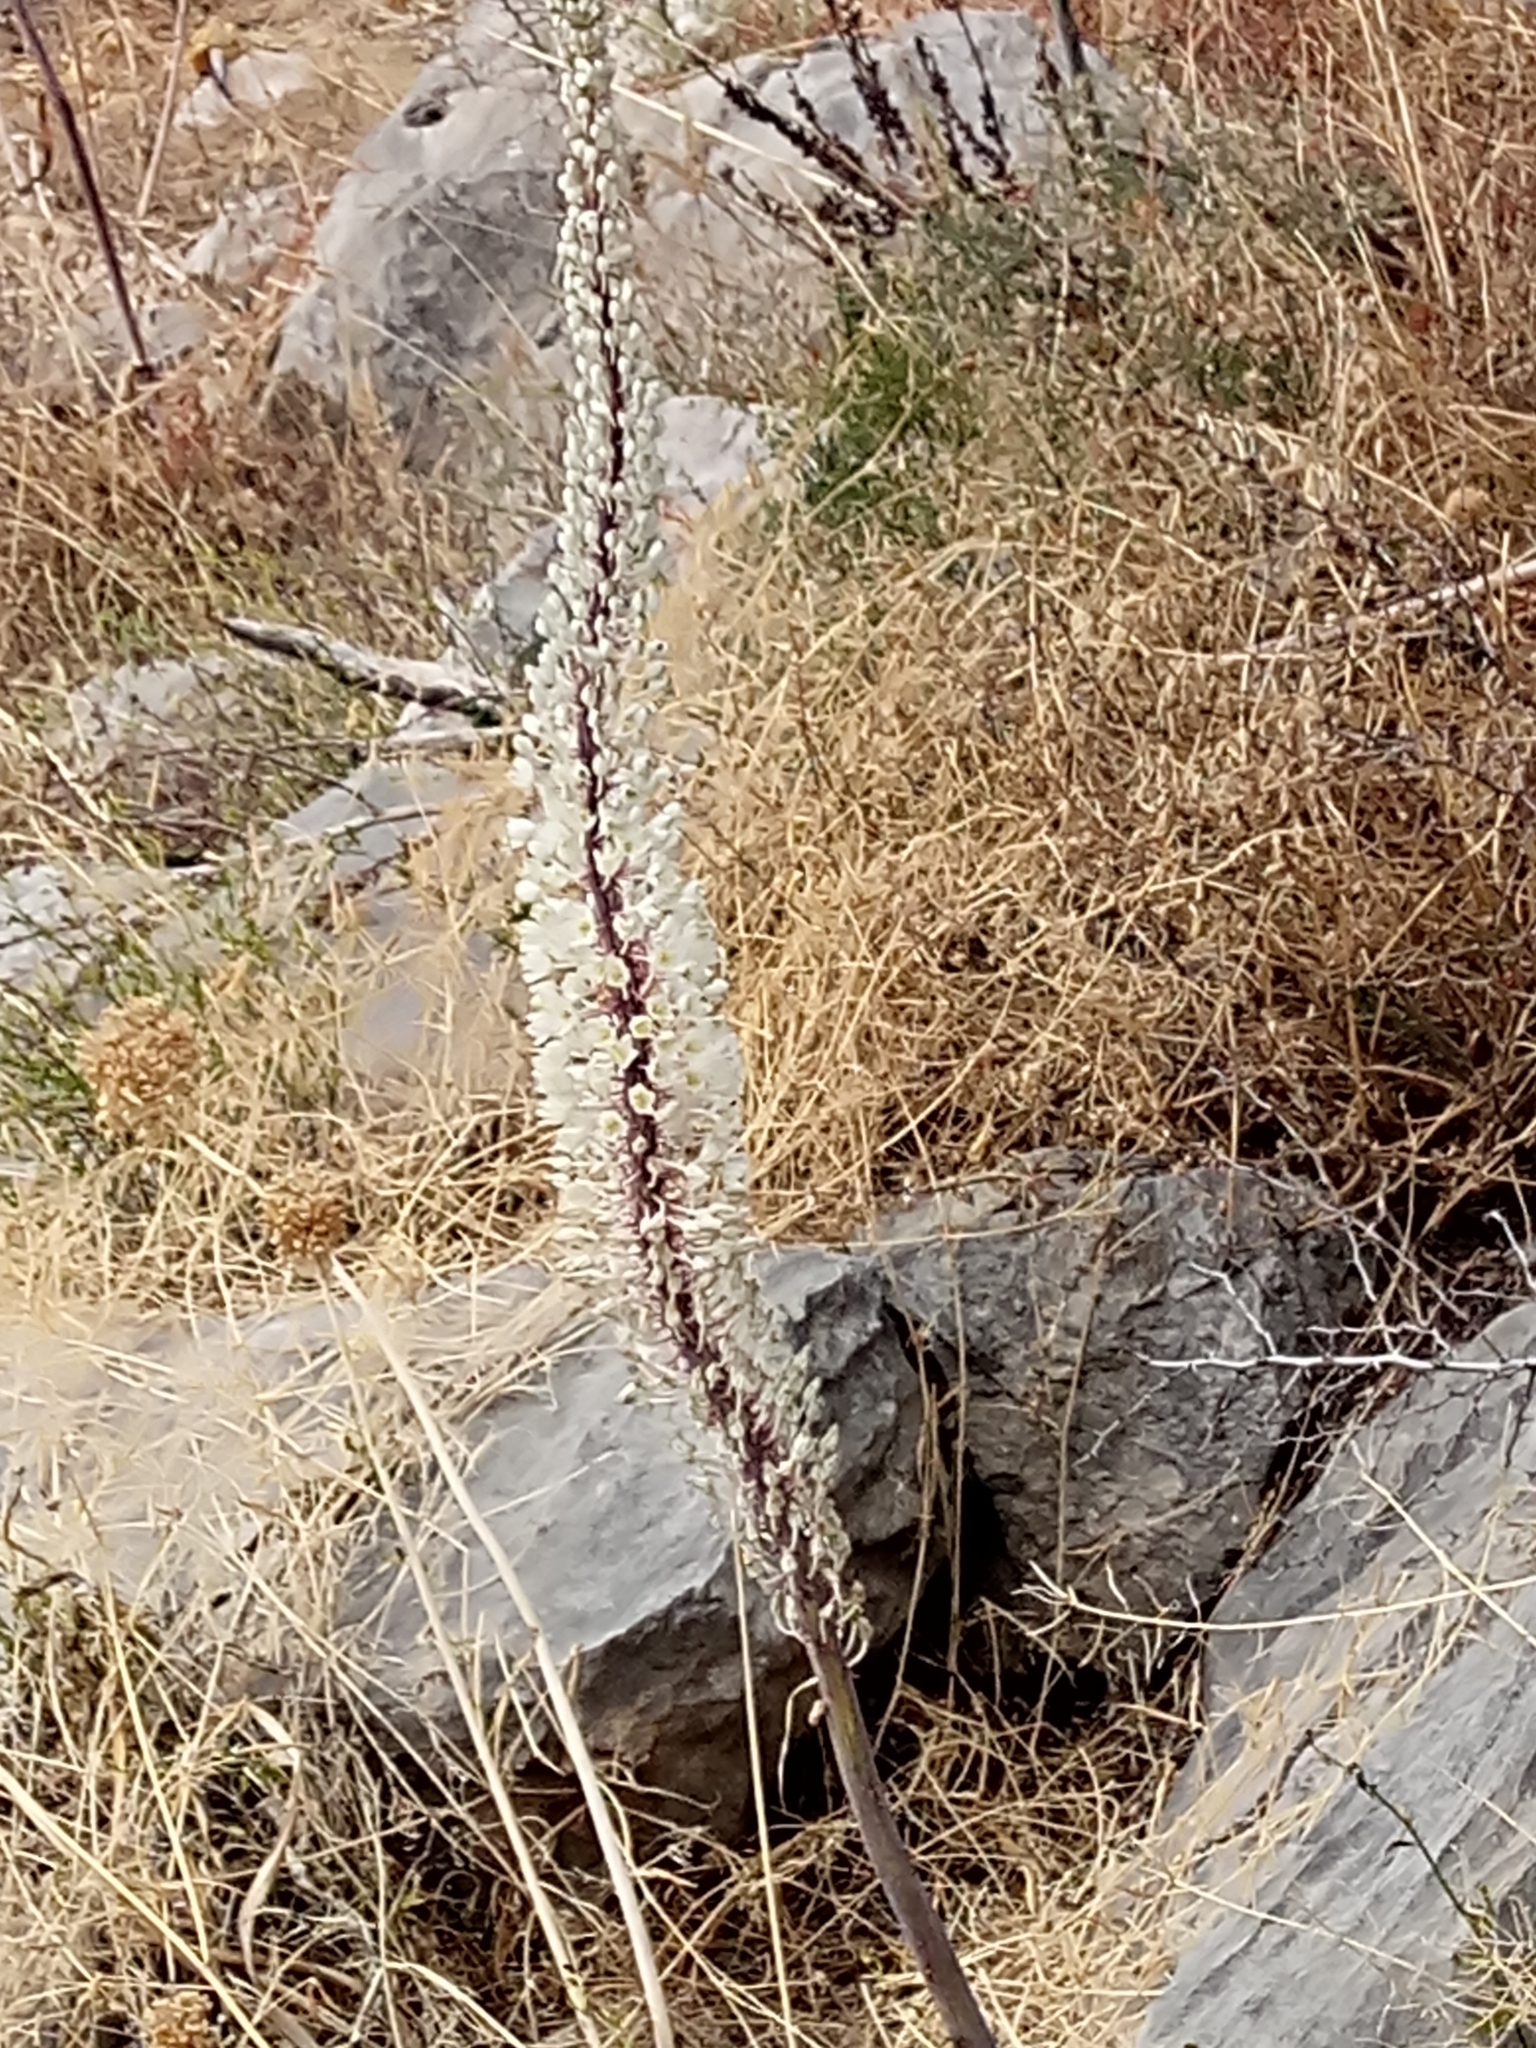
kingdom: Plantae
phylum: Tracheophyta
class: Liliopsida
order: Asparagales
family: Asparagaceae
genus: Drimia
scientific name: Drimia numidica
